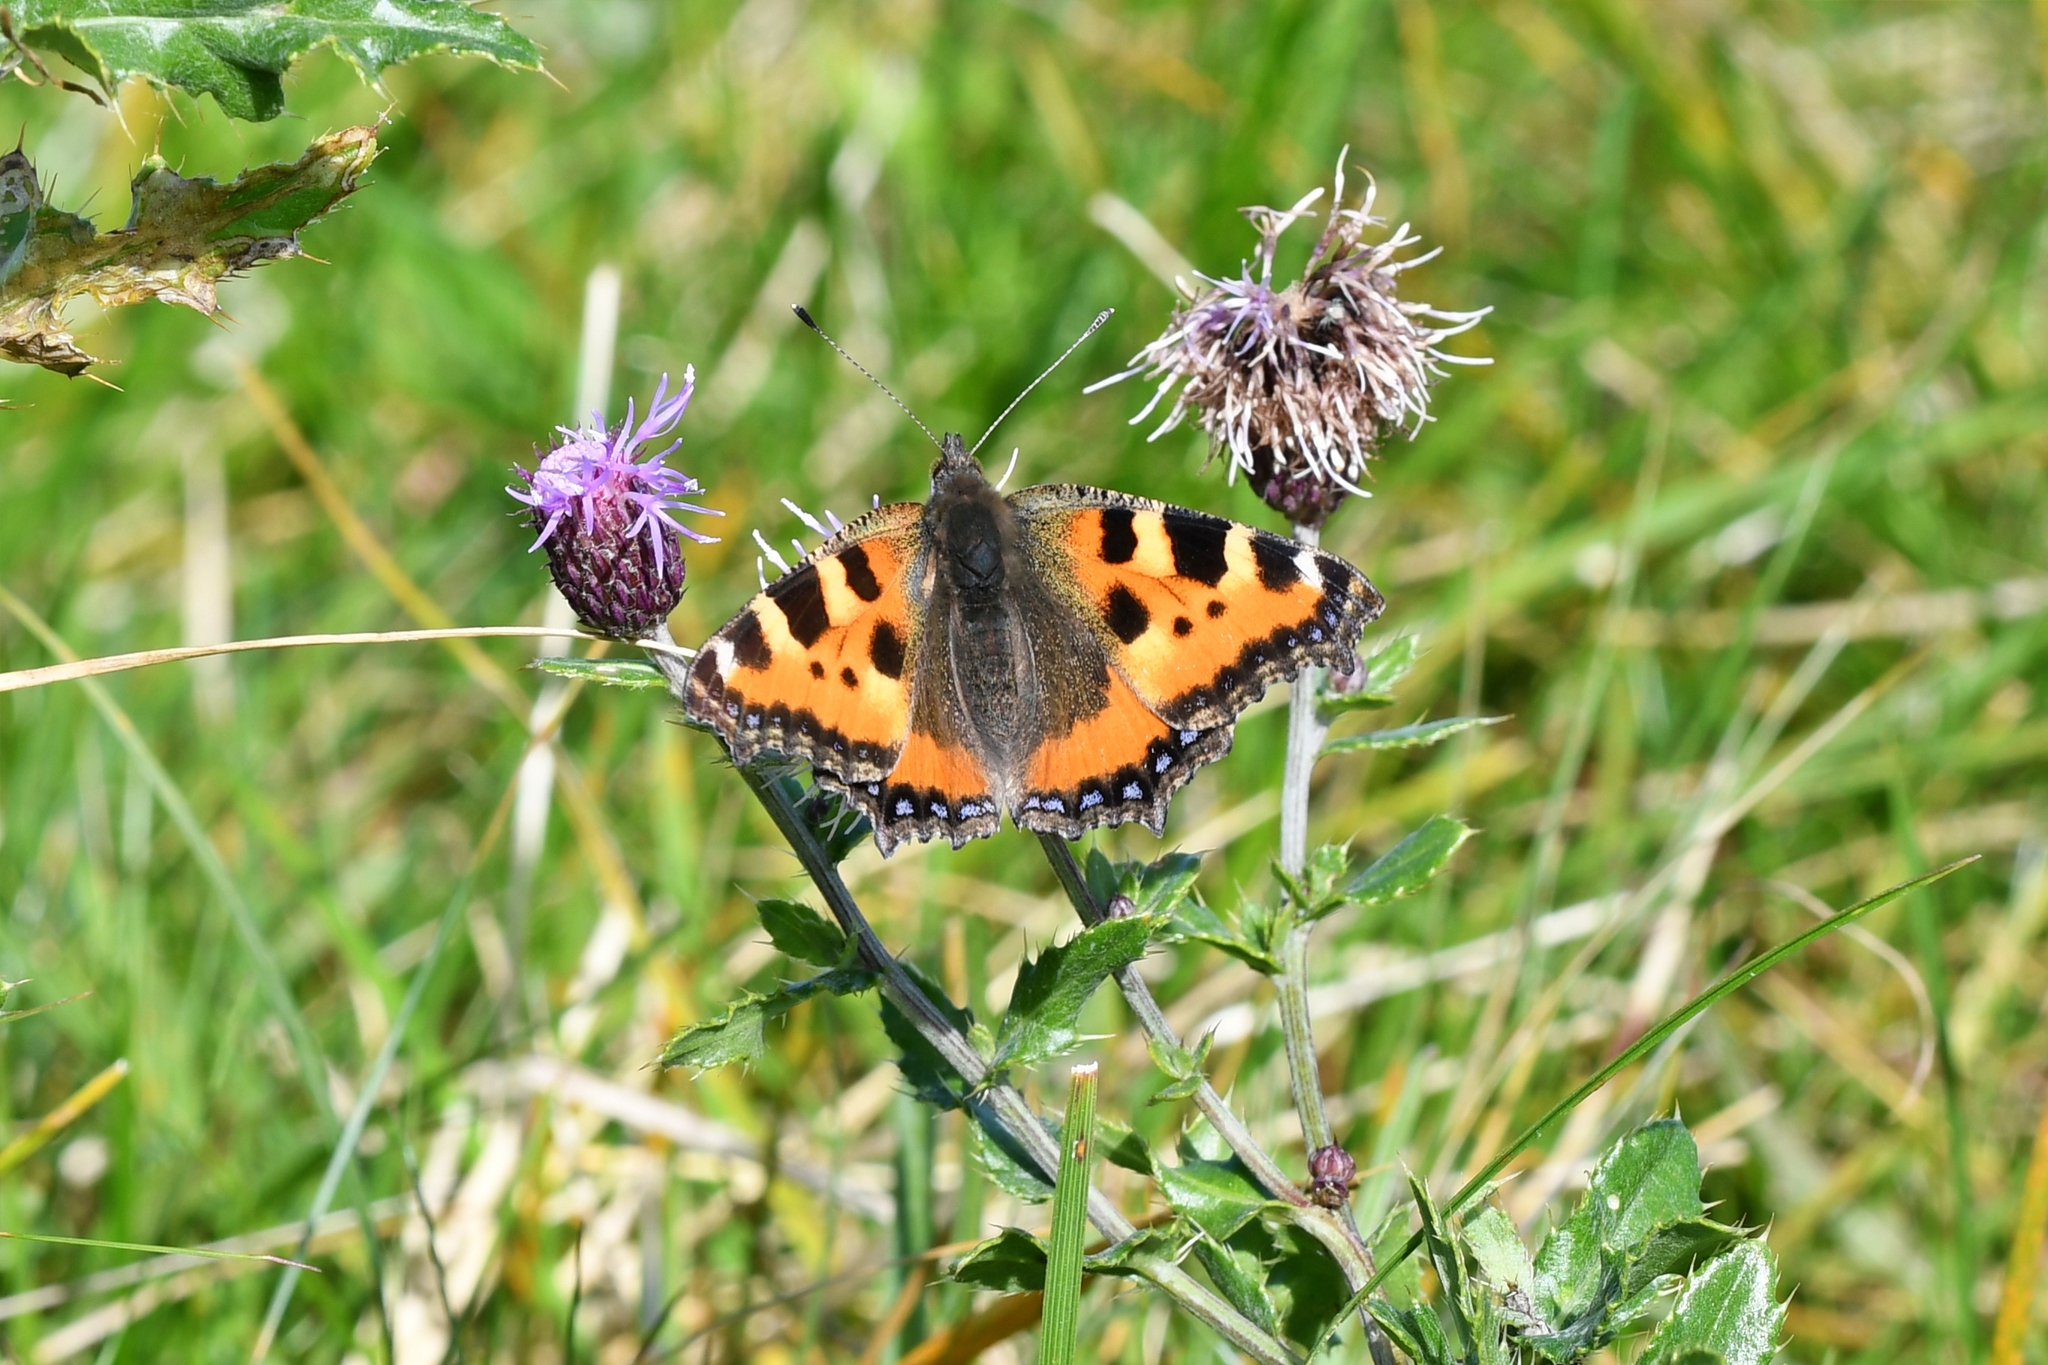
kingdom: Animalia
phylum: Arthropoda
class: Insecta
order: Lepidoptera
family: Nymphalidae
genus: Aglais
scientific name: Aglais urticae
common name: Small tortoiseshell
